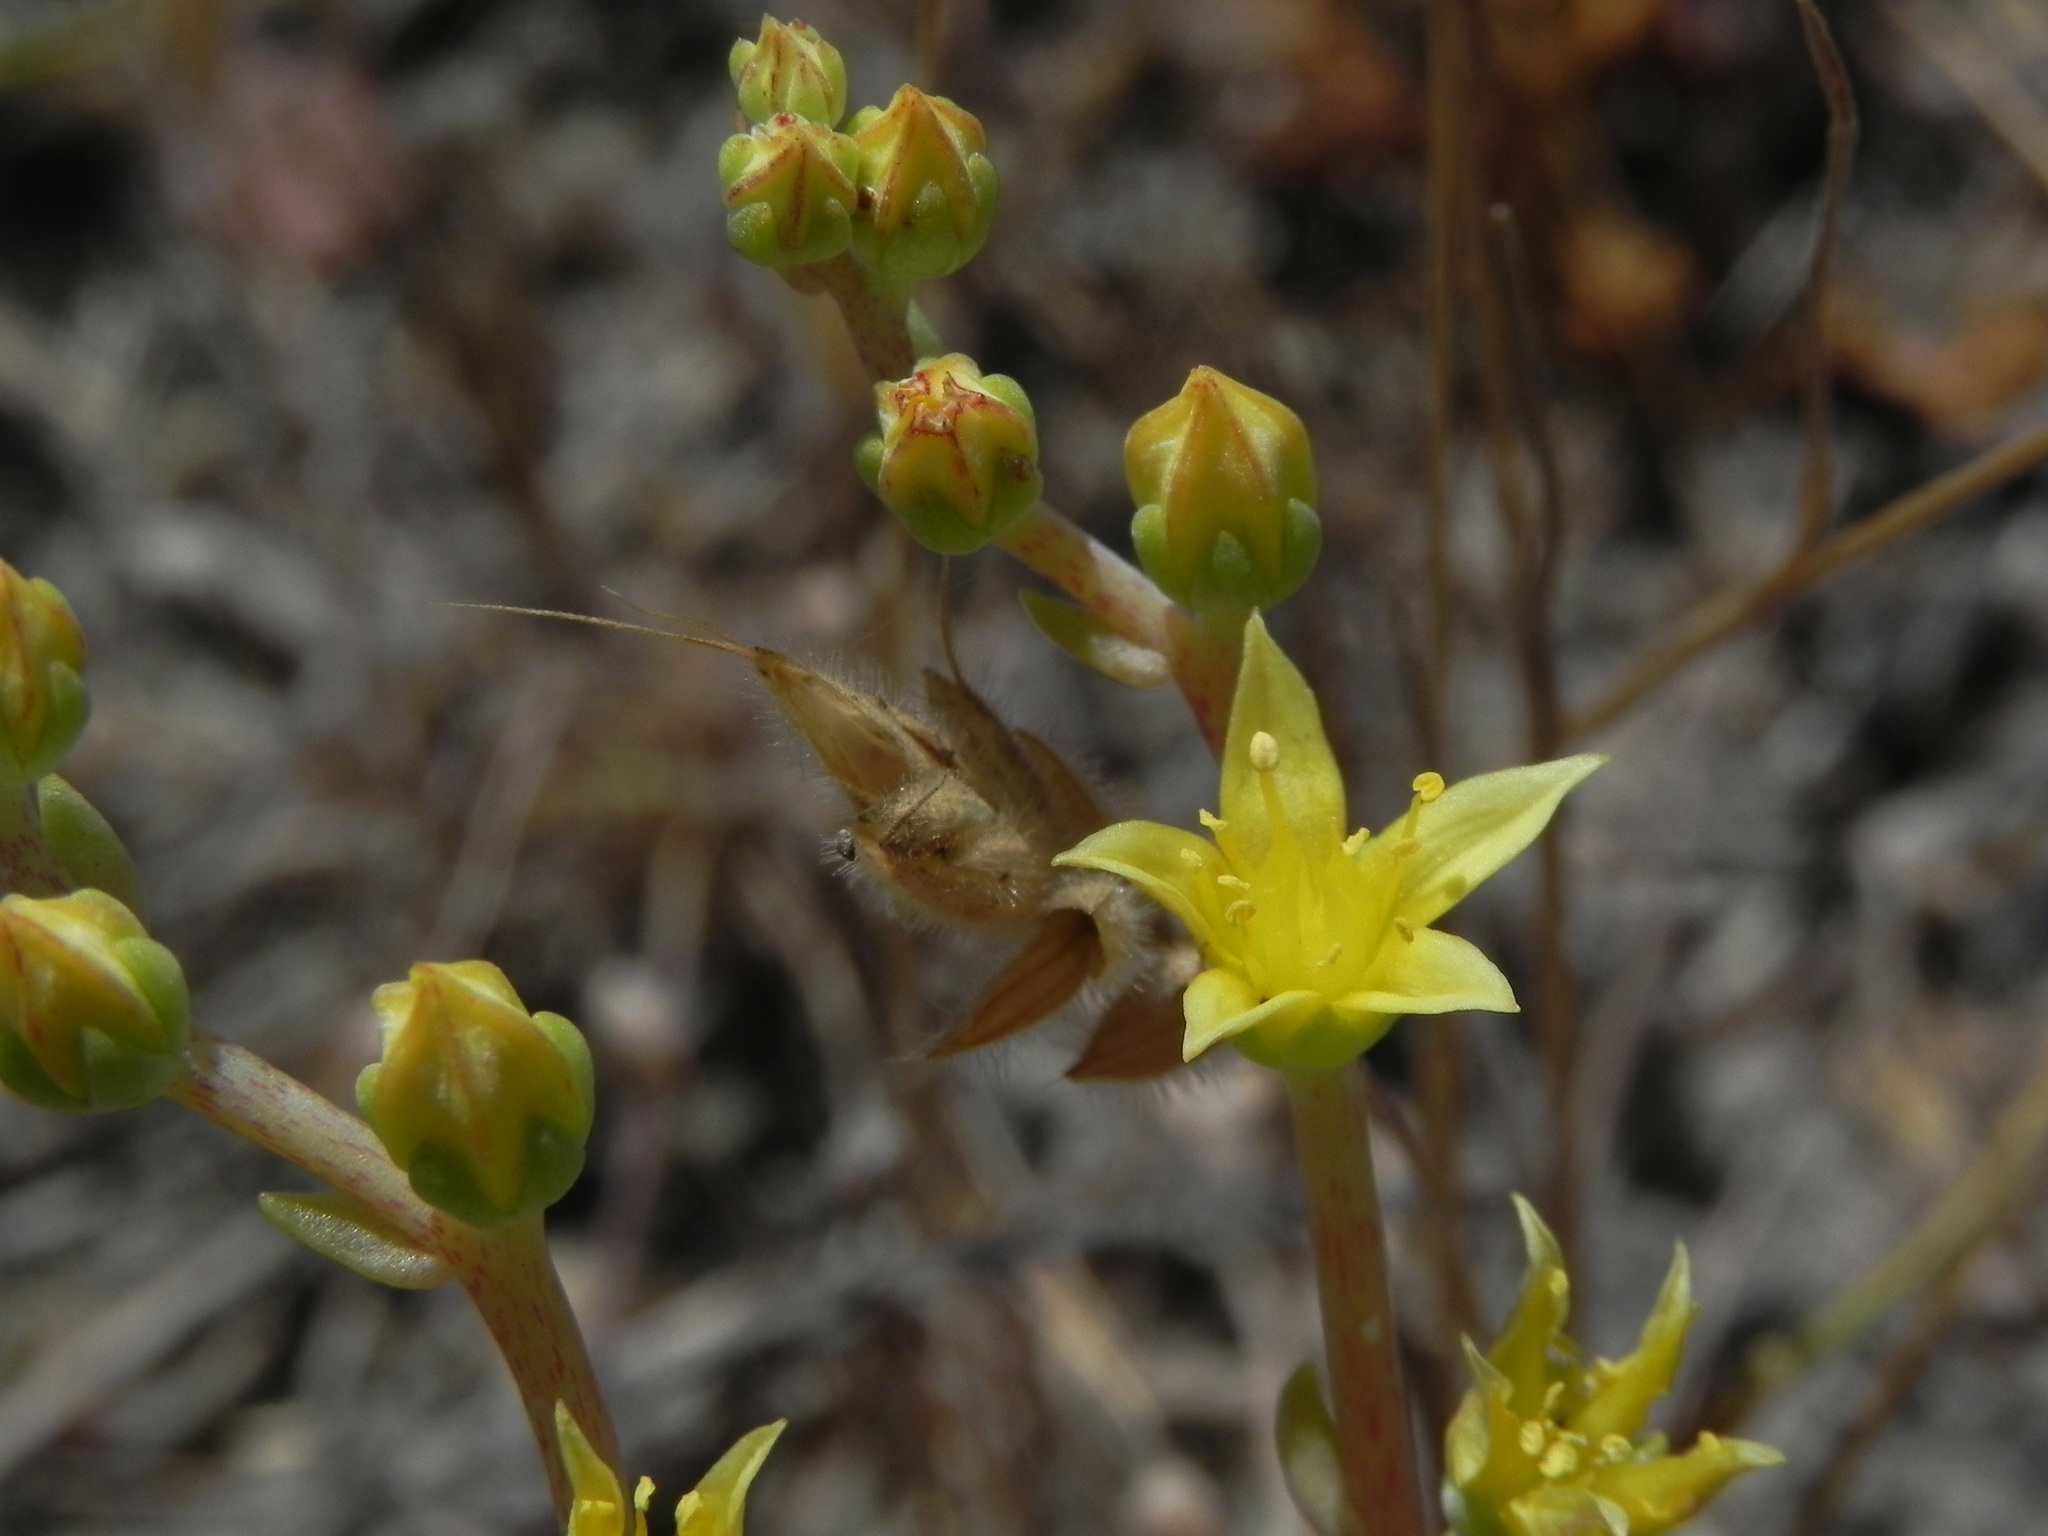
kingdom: Plantae
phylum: Tracheophyta
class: Magnoliopsida
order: Saxifragales
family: Crassulaceae
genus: Dudleya
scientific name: Dudleya variegata
